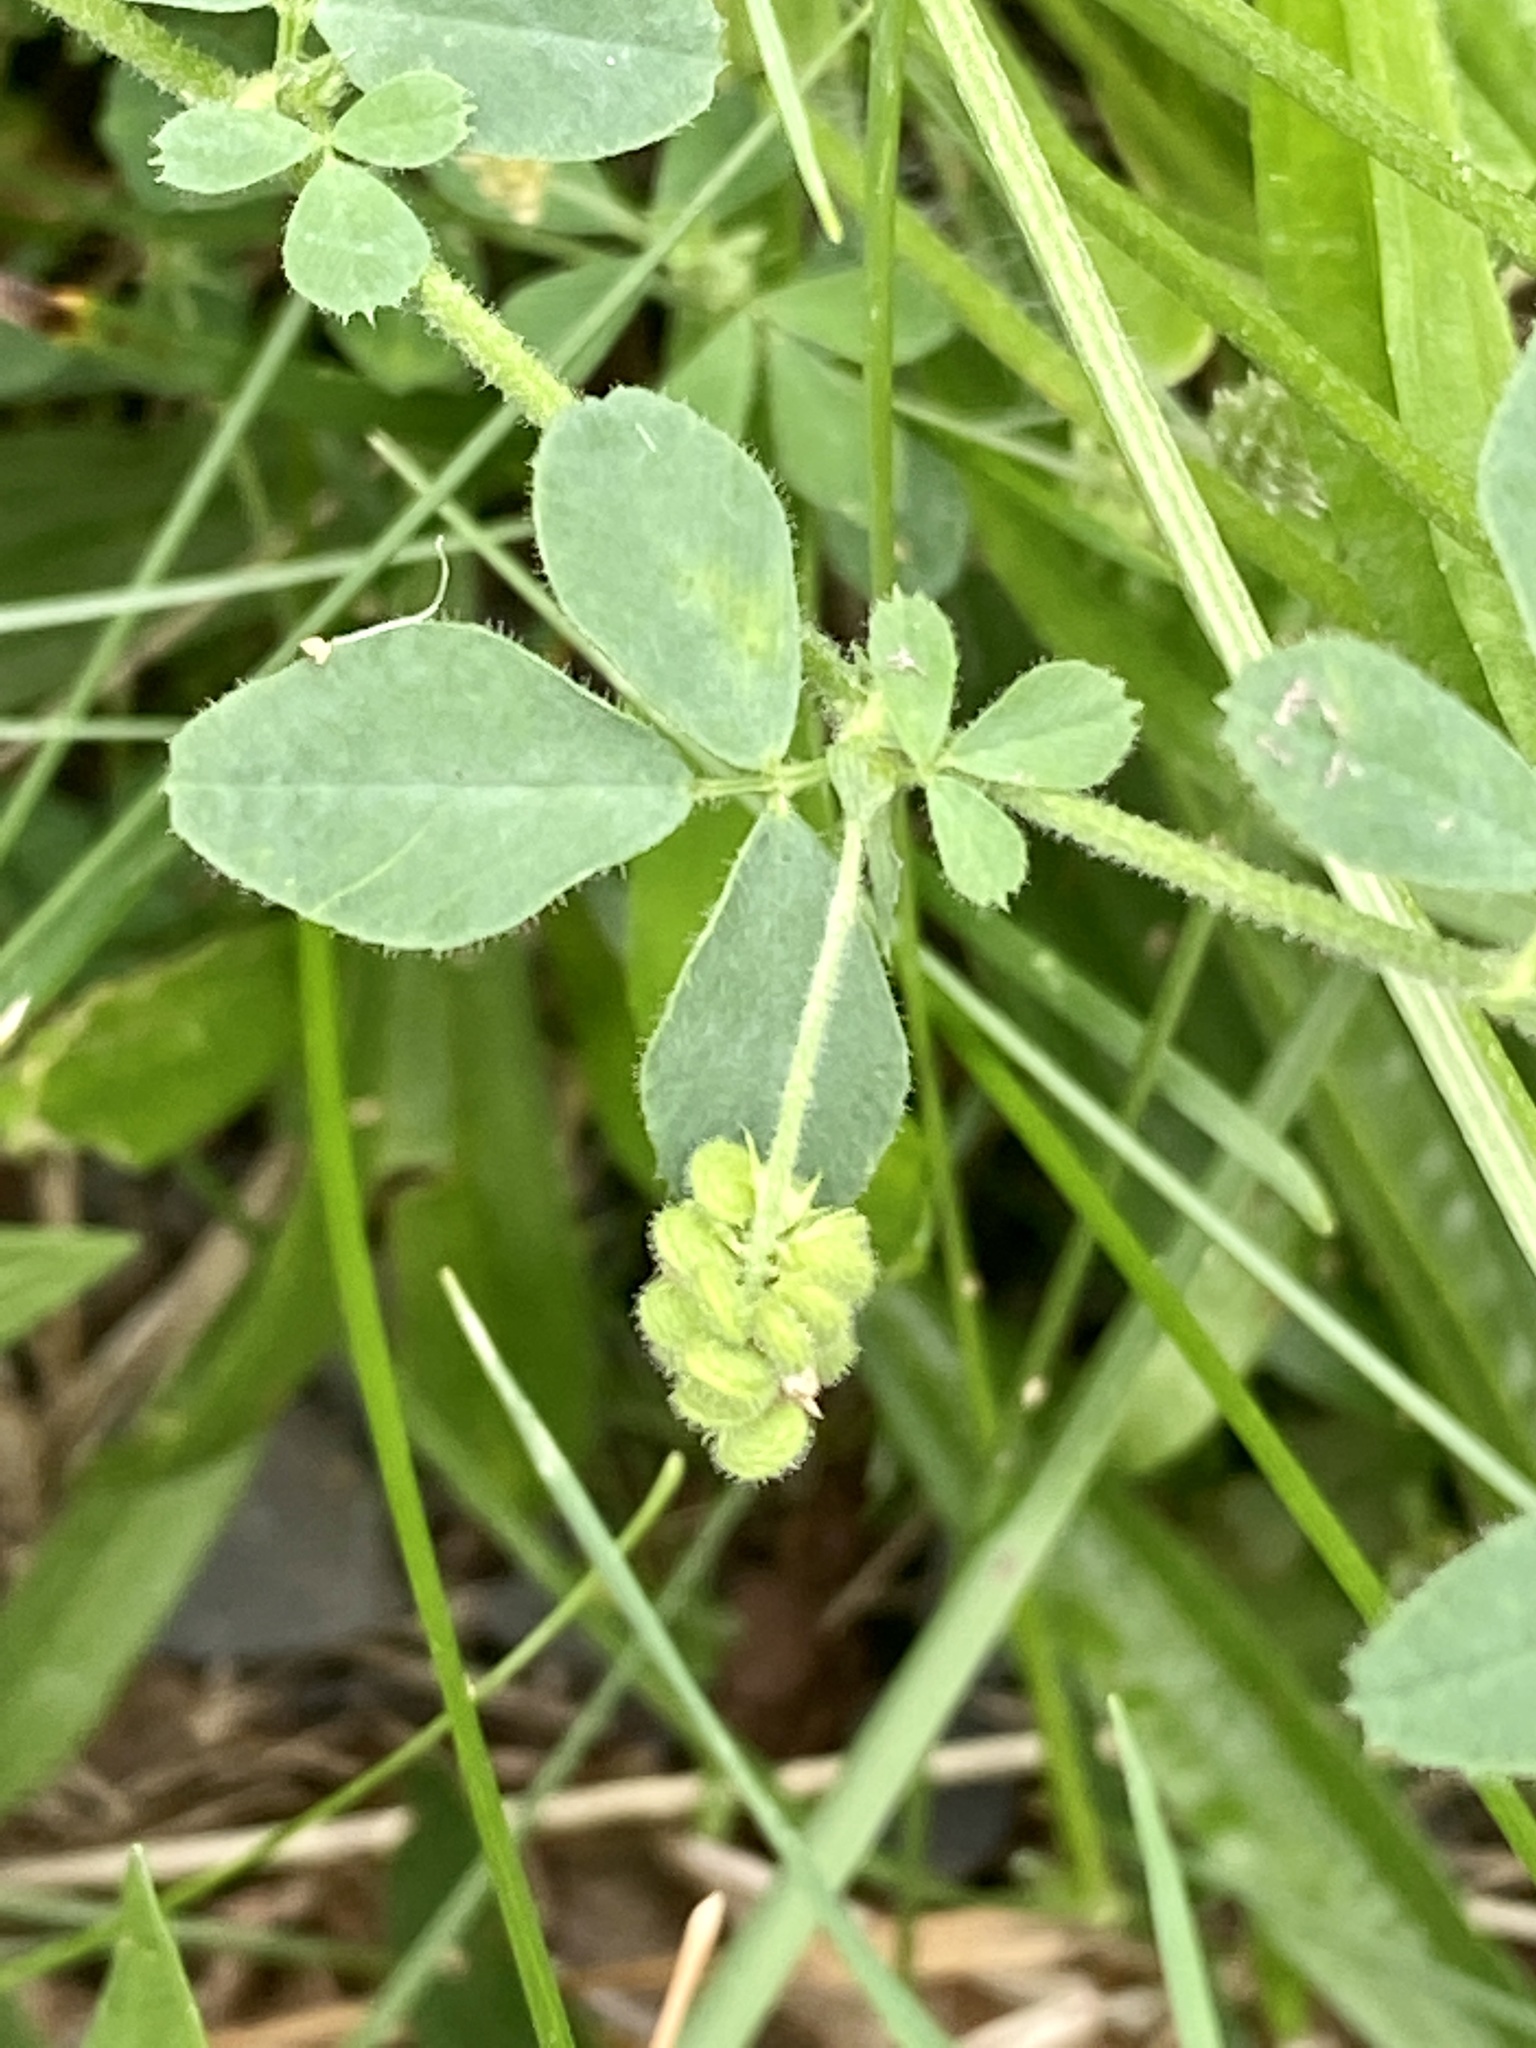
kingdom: Plantae
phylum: Tracheophyta
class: Magnoliopsida
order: Fabales
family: Fabaceae
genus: Medicago
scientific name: Medicago lupulina
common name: Black medick
